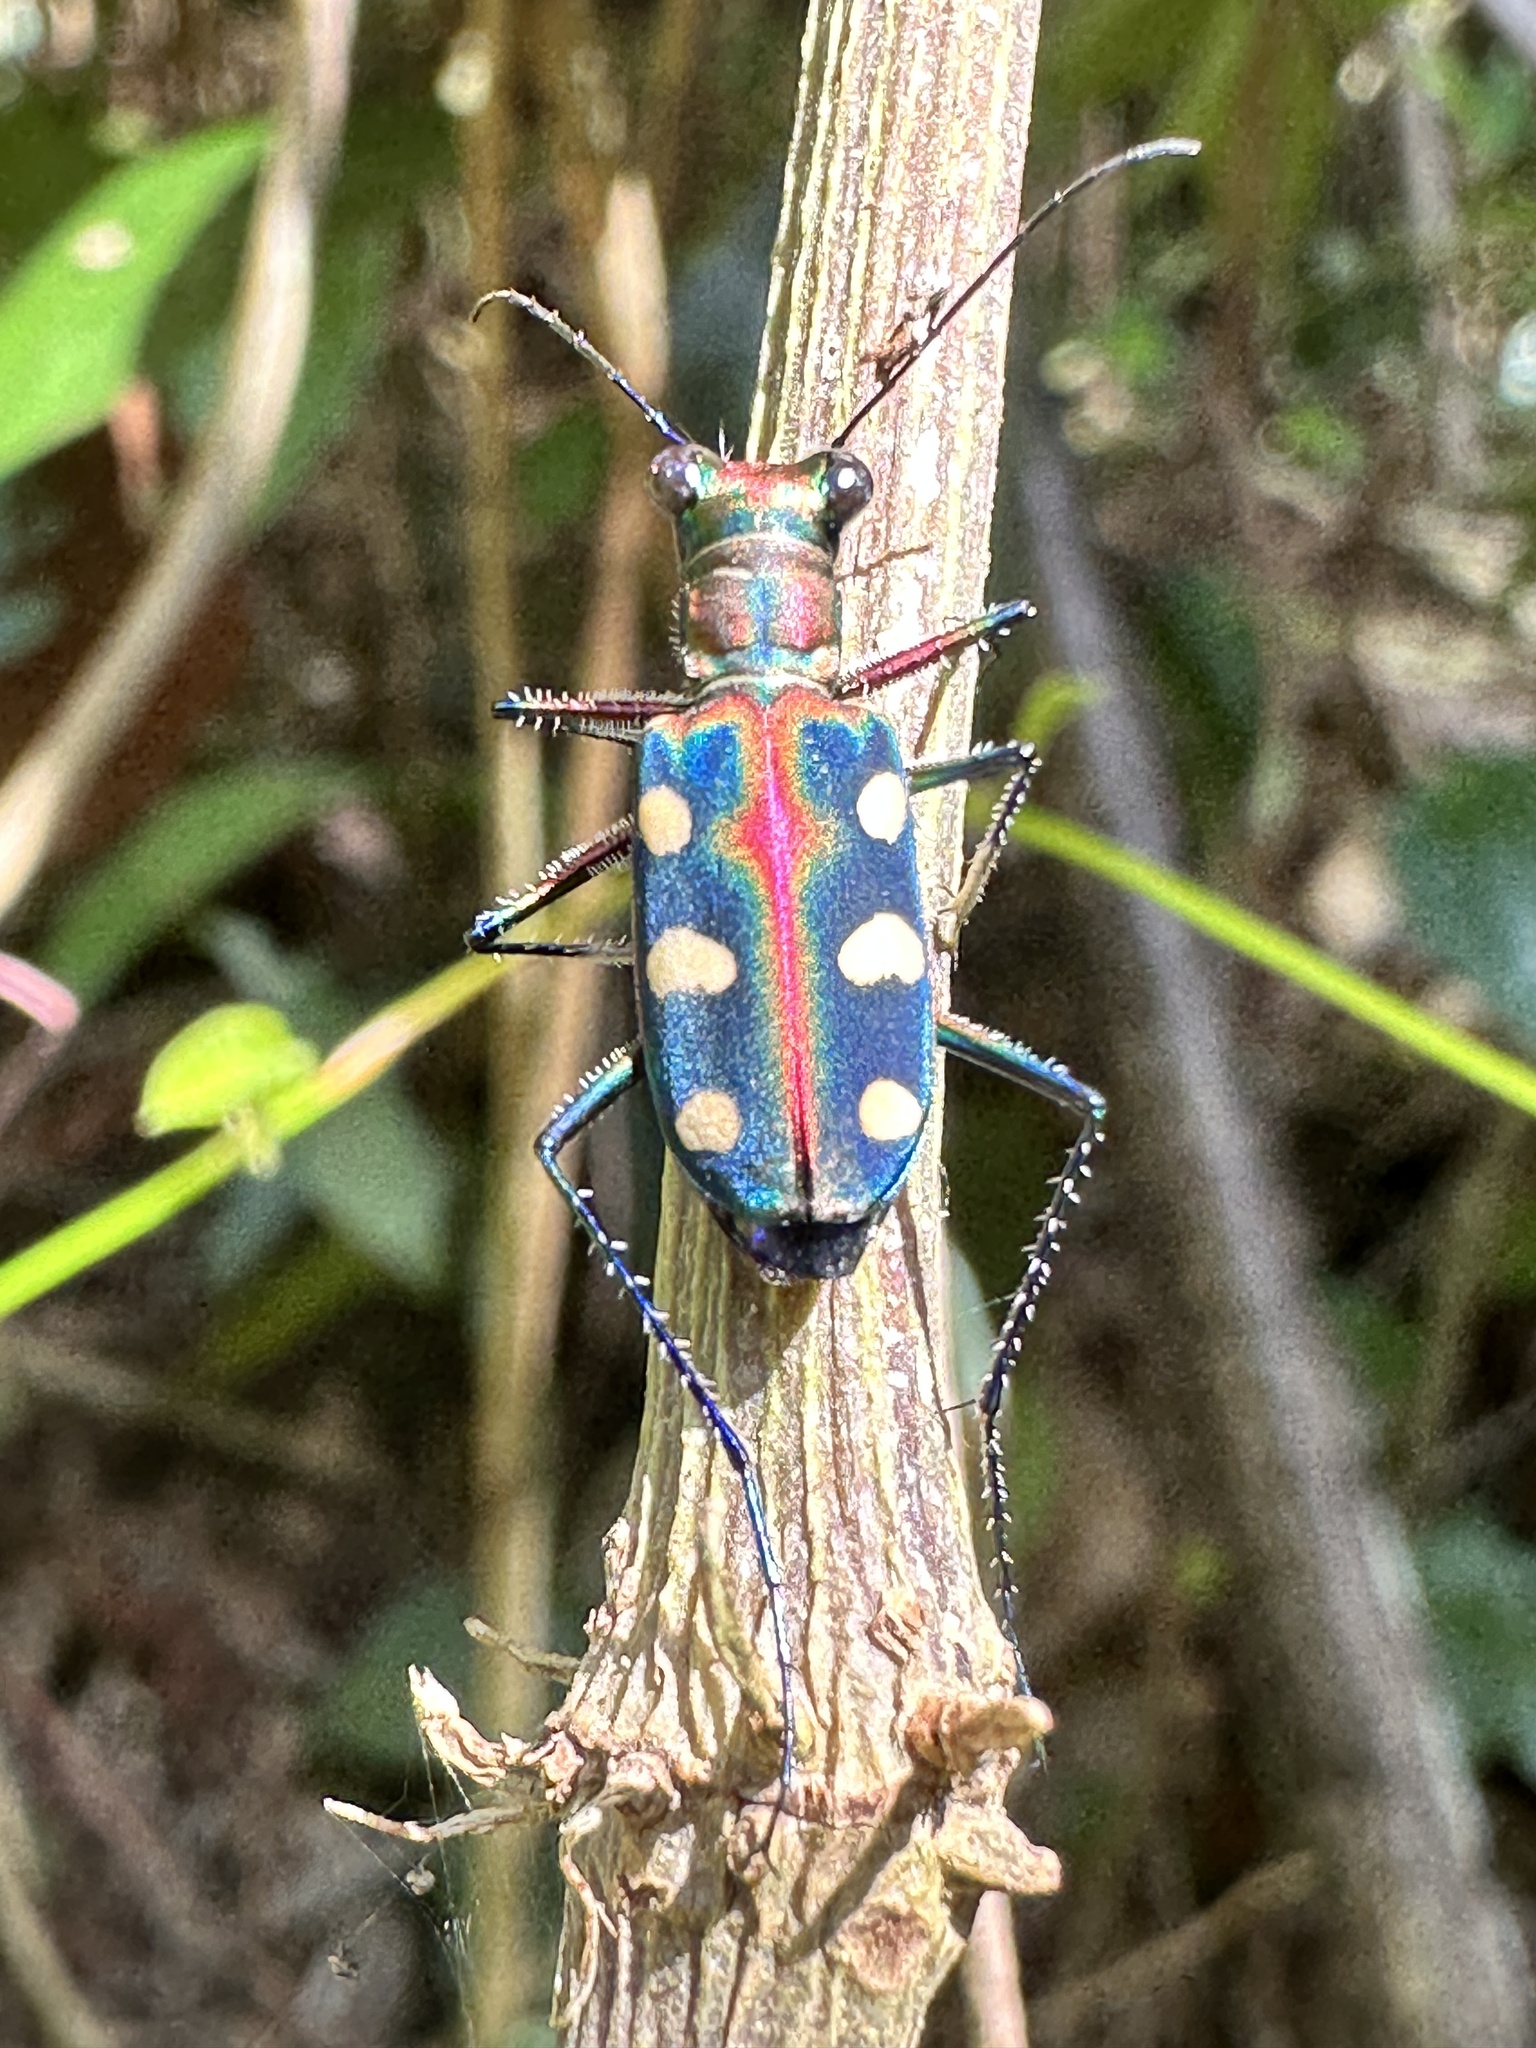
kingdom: Animalia
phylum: Arthropoda
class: Insecta
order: Coleoptera
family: Carabidae
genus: Cicindela
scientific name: Cicindela aurulenta
